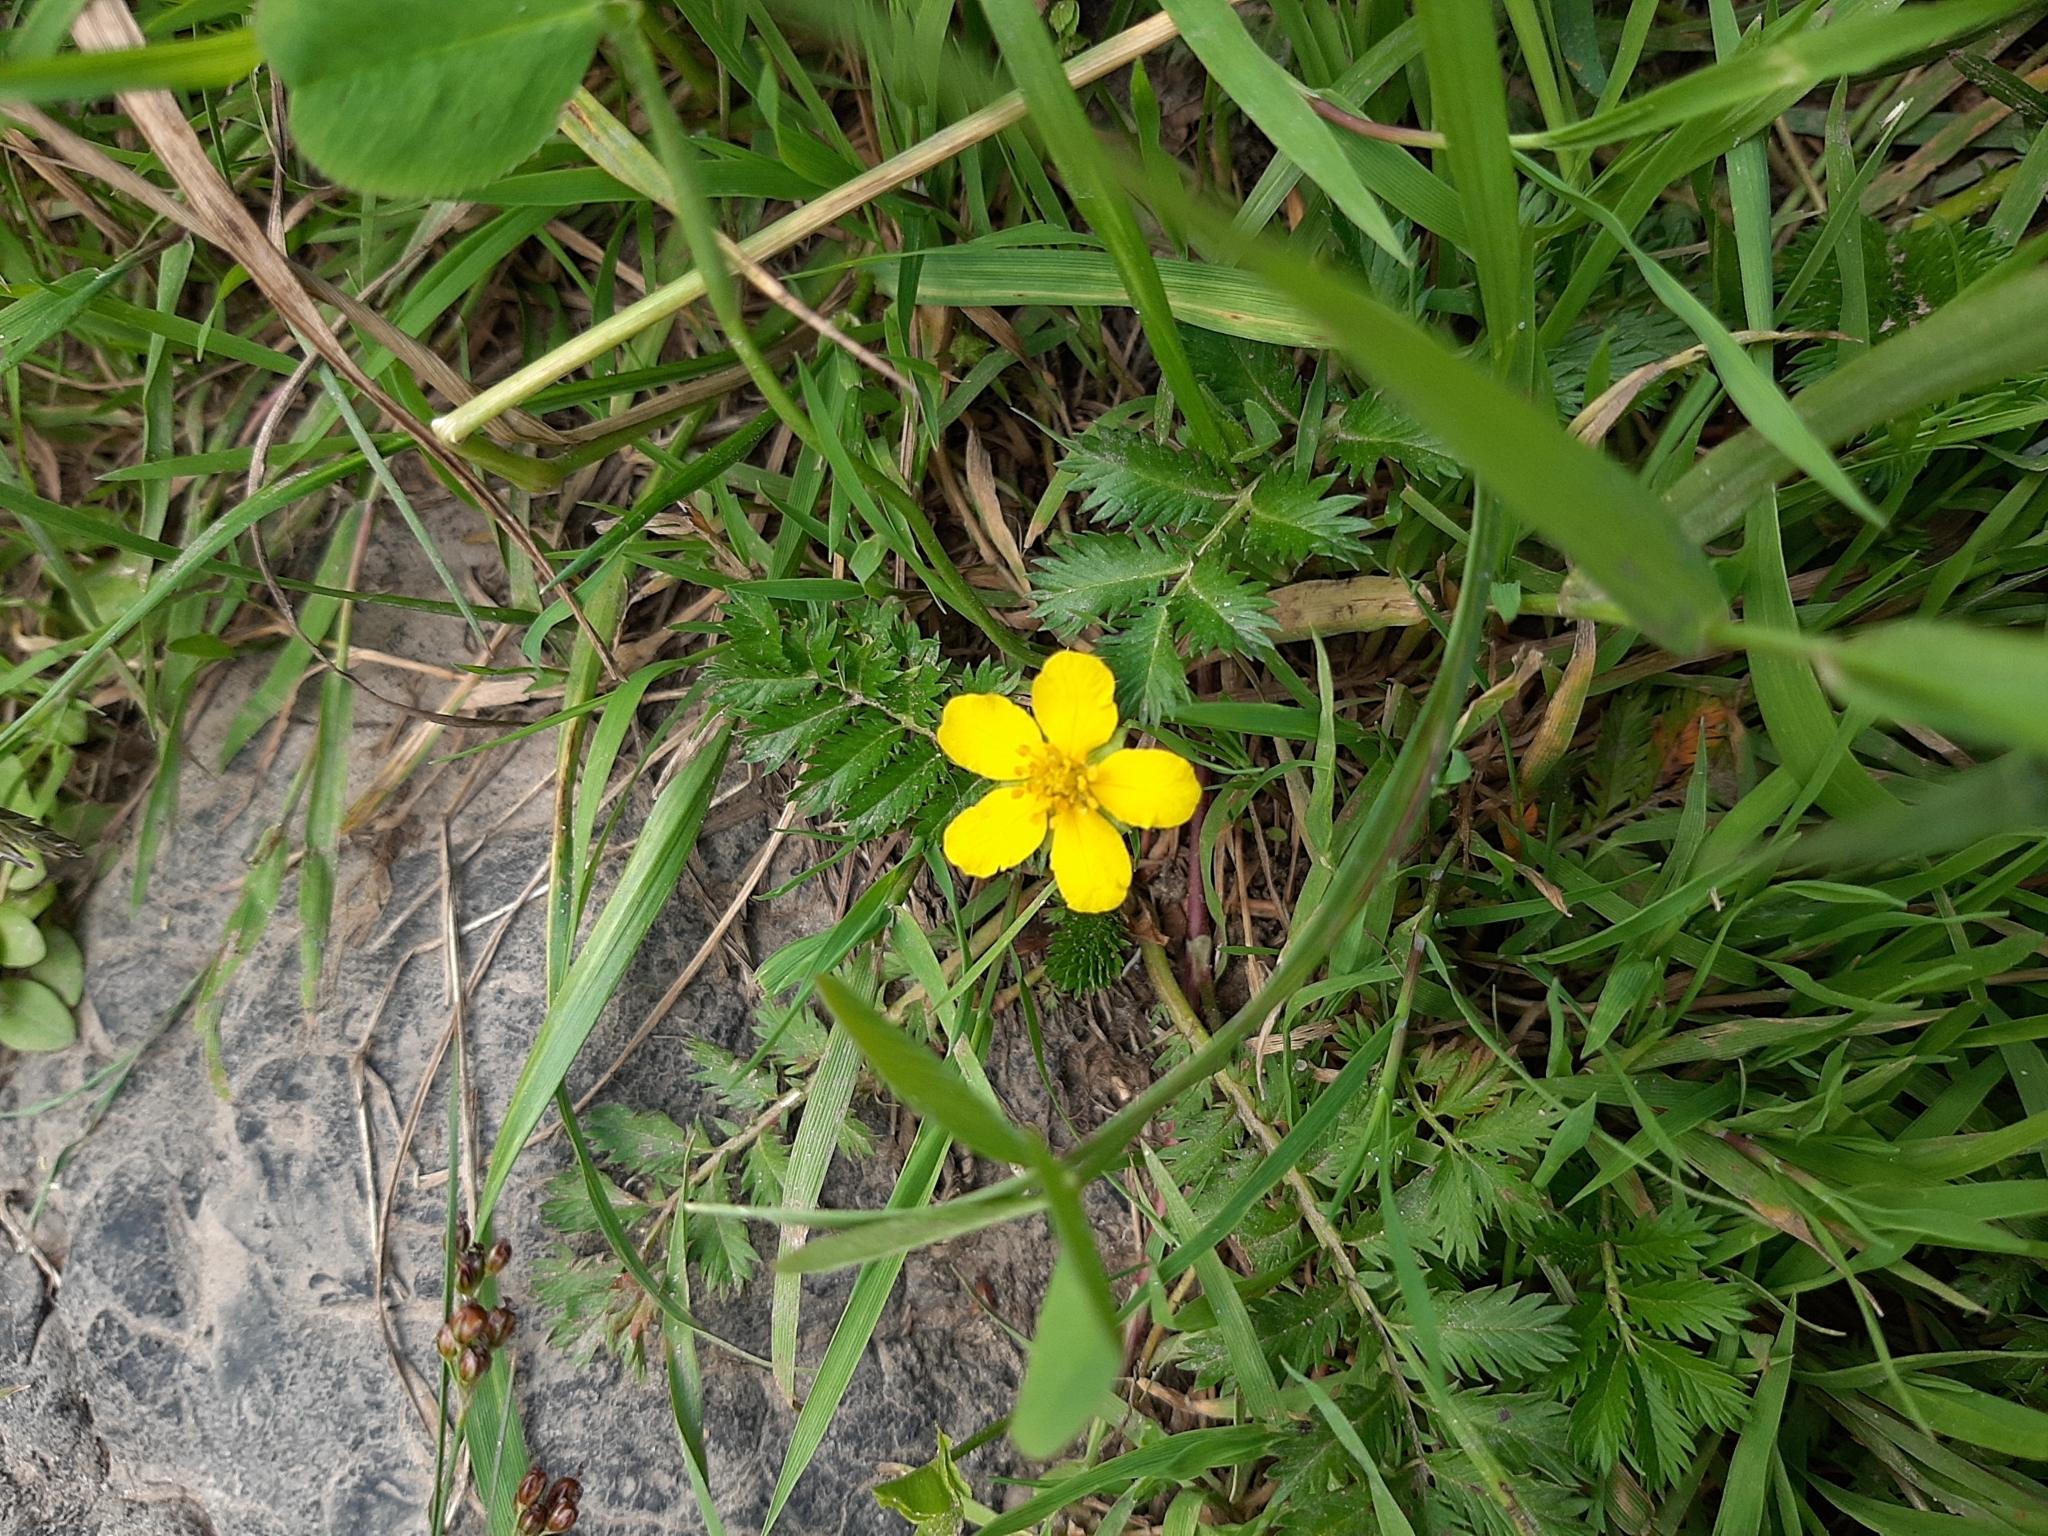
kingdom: Plantae
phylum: Tracheophyta
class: Magnoliopsida
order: Rosales
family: Rosaceae
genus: Argentina
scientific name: Argentina anserina
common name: Common silverweed
